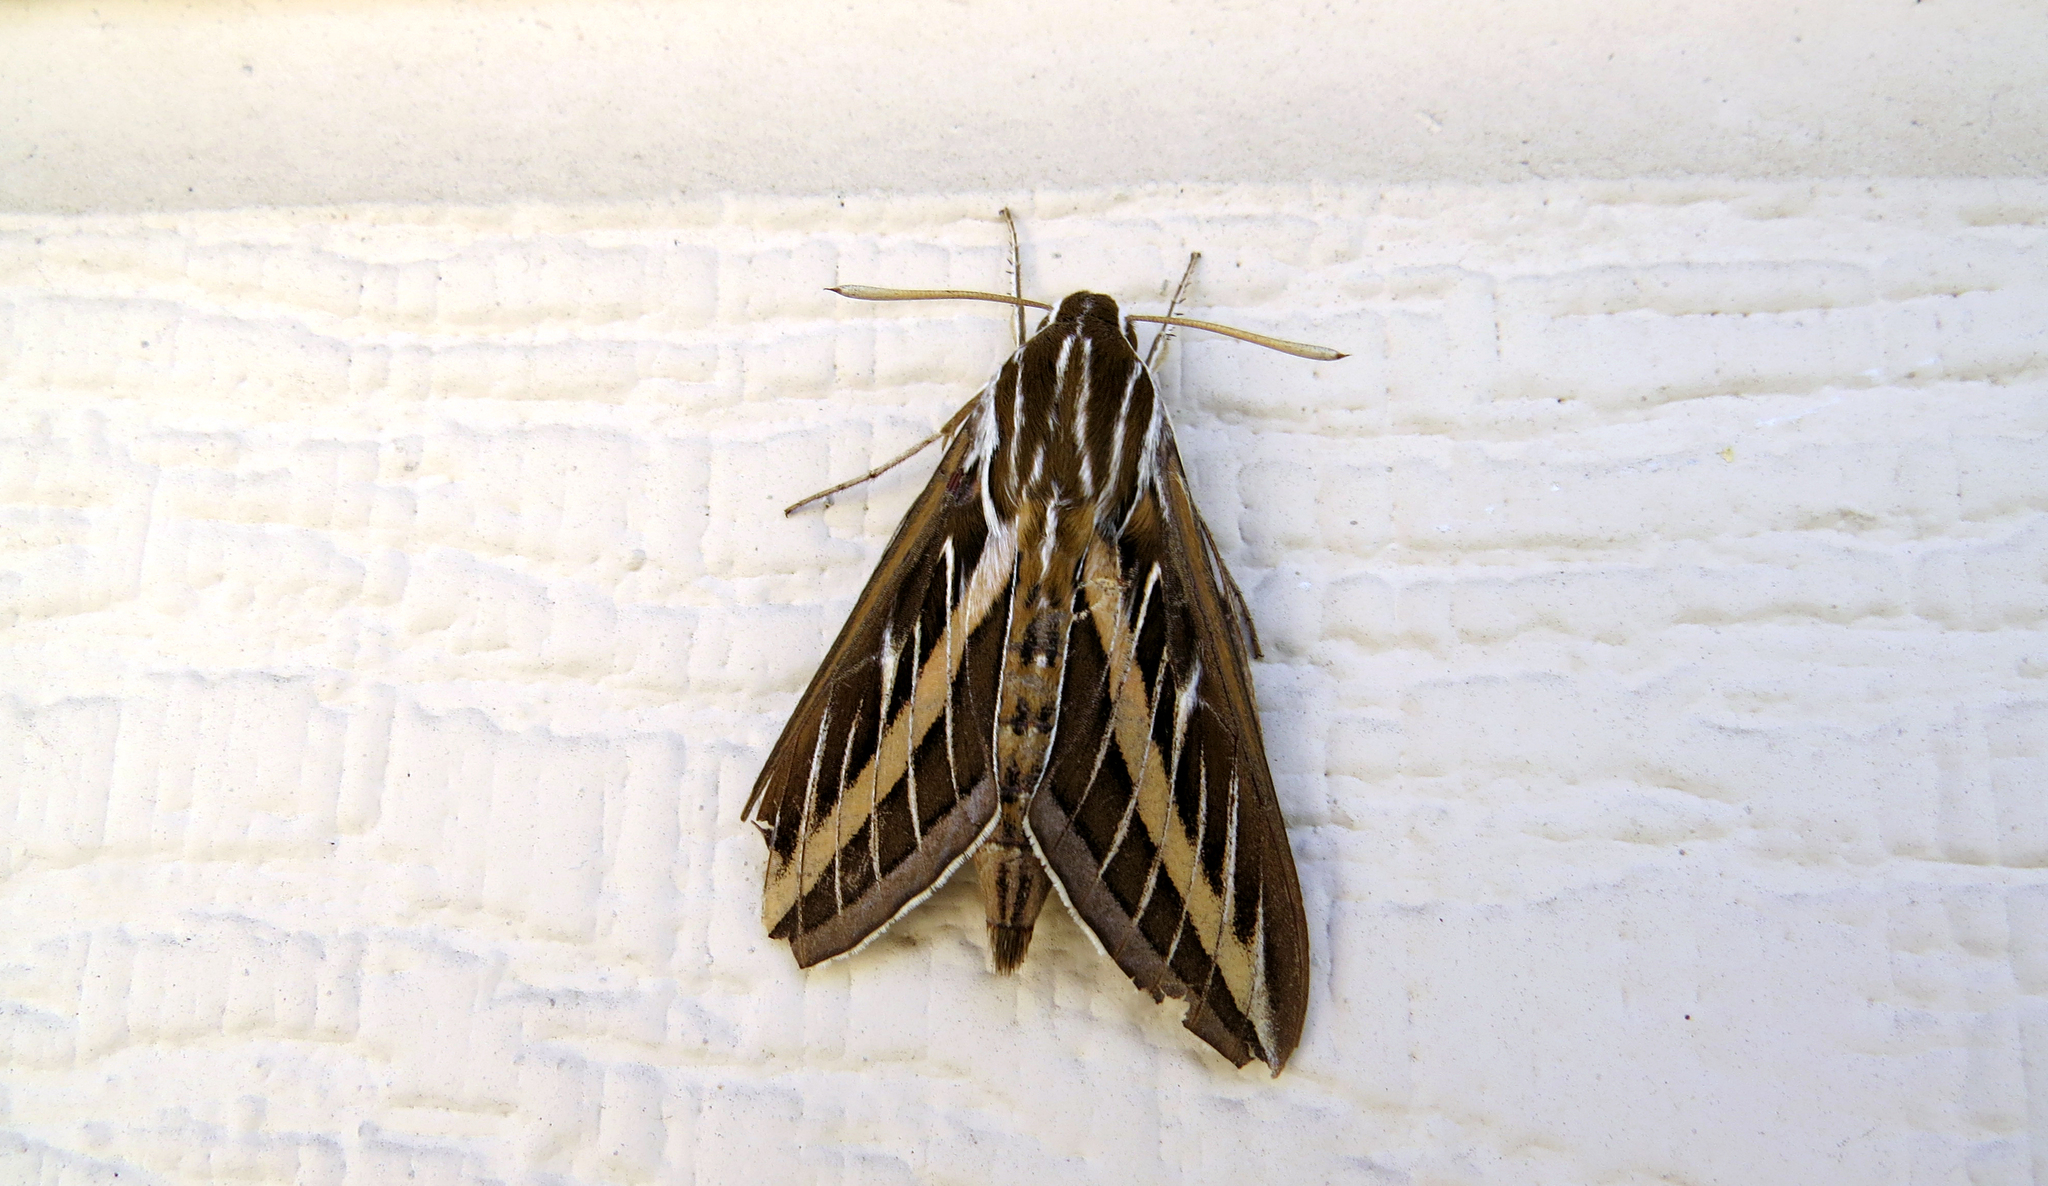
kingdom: Animalia
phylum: Arthropoda
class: Insecta
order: Lepidoptera
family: Sphingidae
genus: Hyles
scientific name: Hyles lineata
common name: White-lined sphinx
